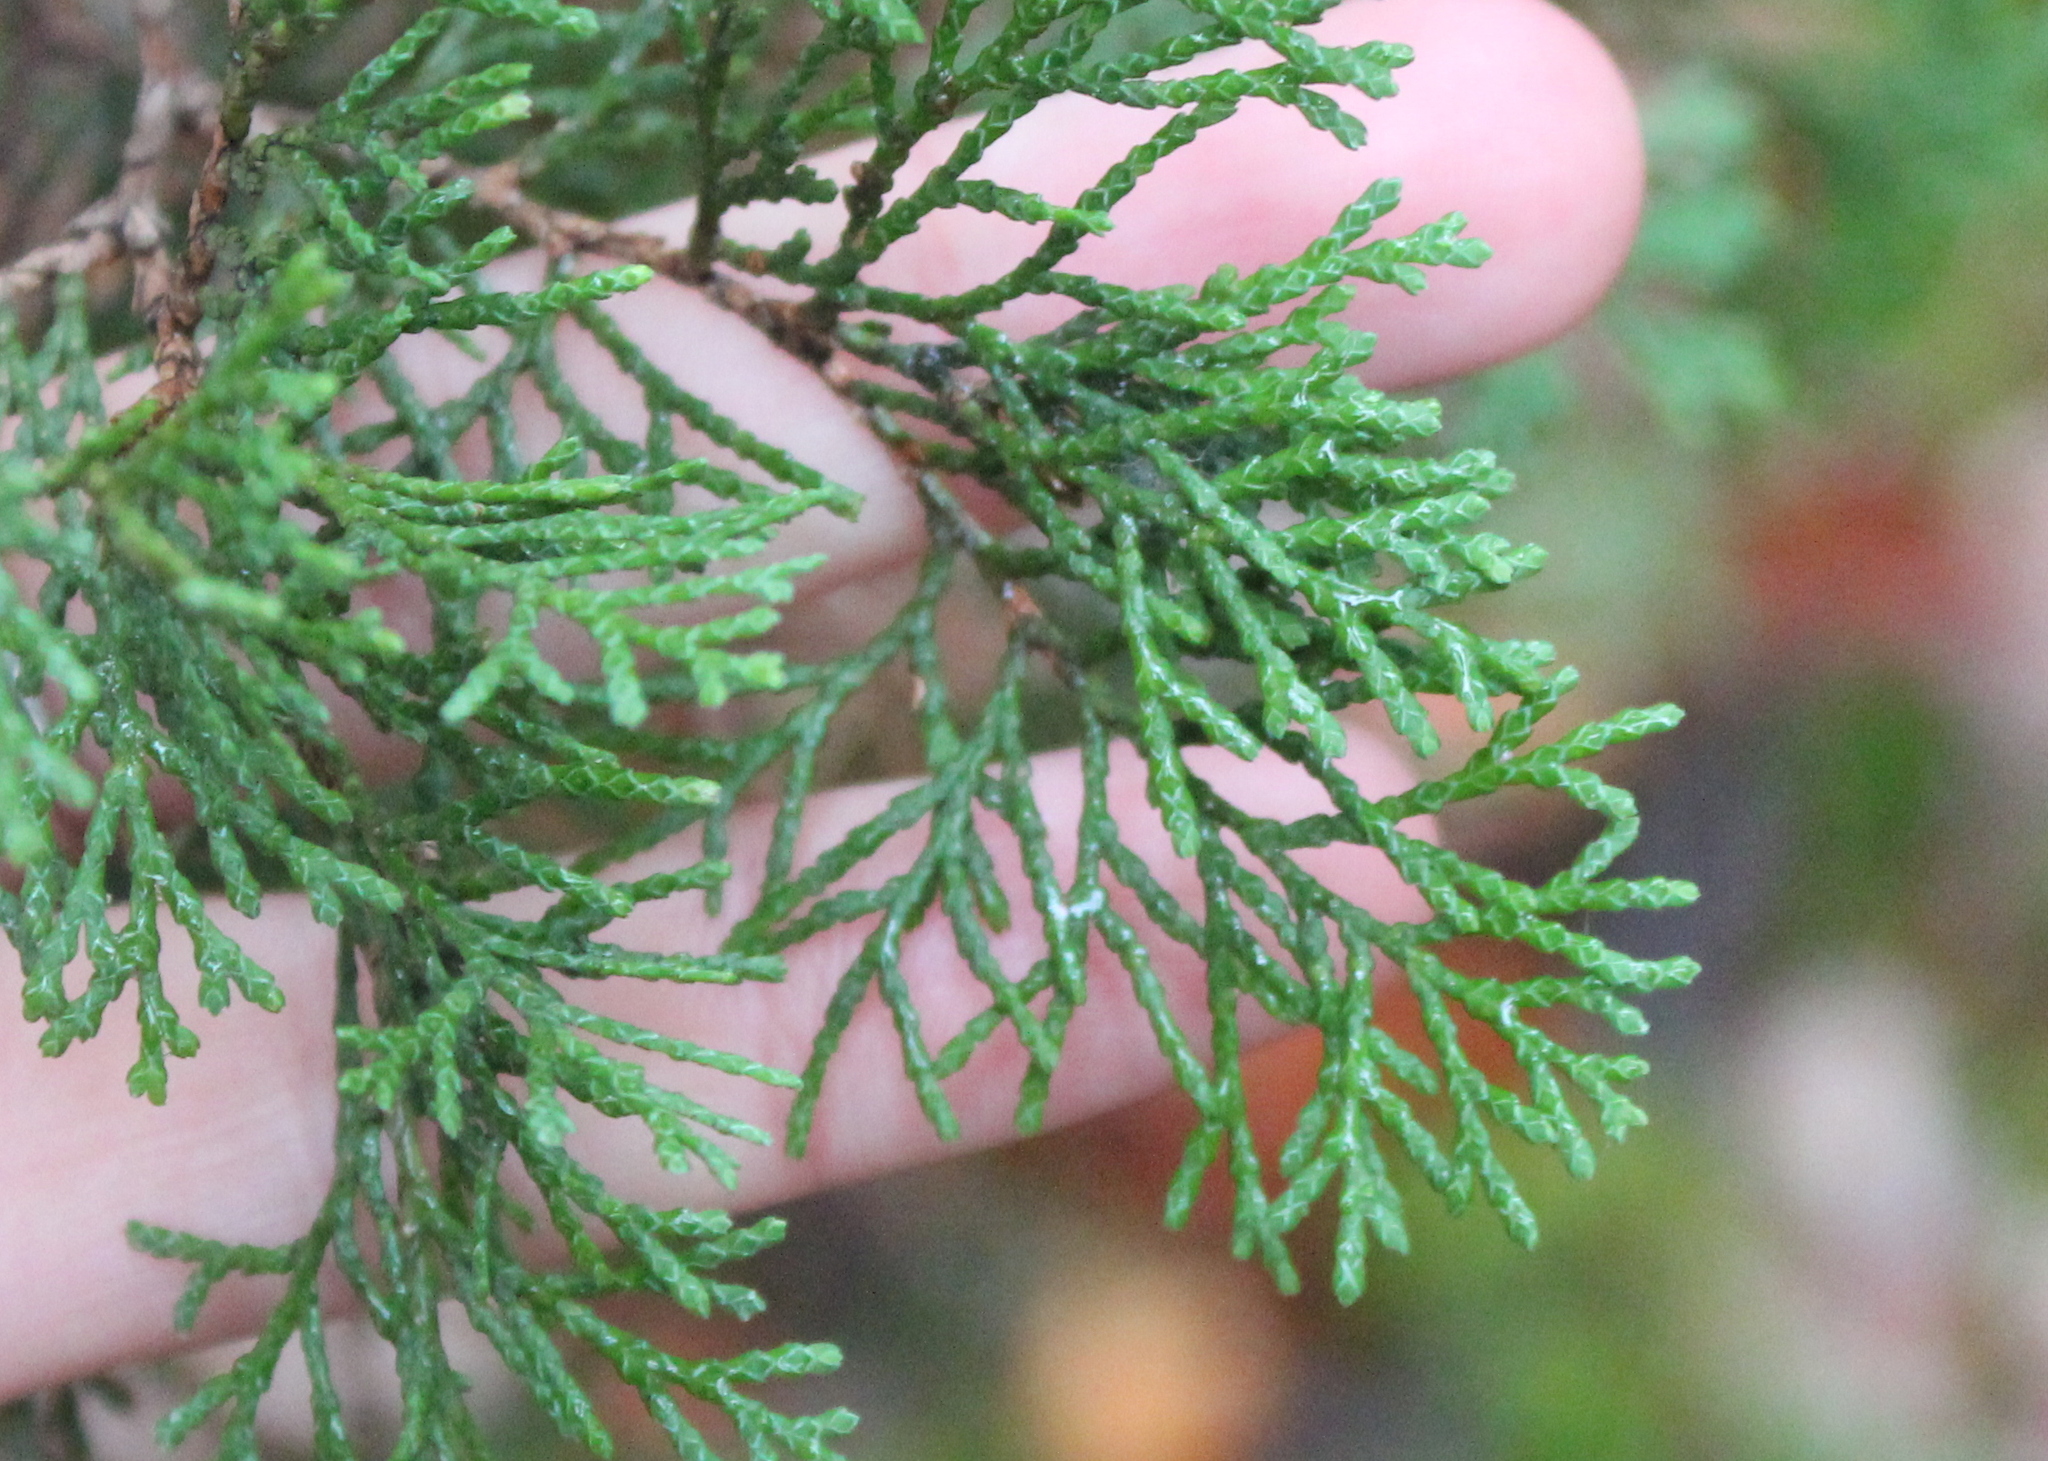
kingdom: Plantae
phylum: Tracheophyta
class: Pinopsida
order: Pinales
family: Cupressaceae
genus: Chamaecyparis
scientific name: Chamaecyparis thyoides
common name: Atlantic white cedar
